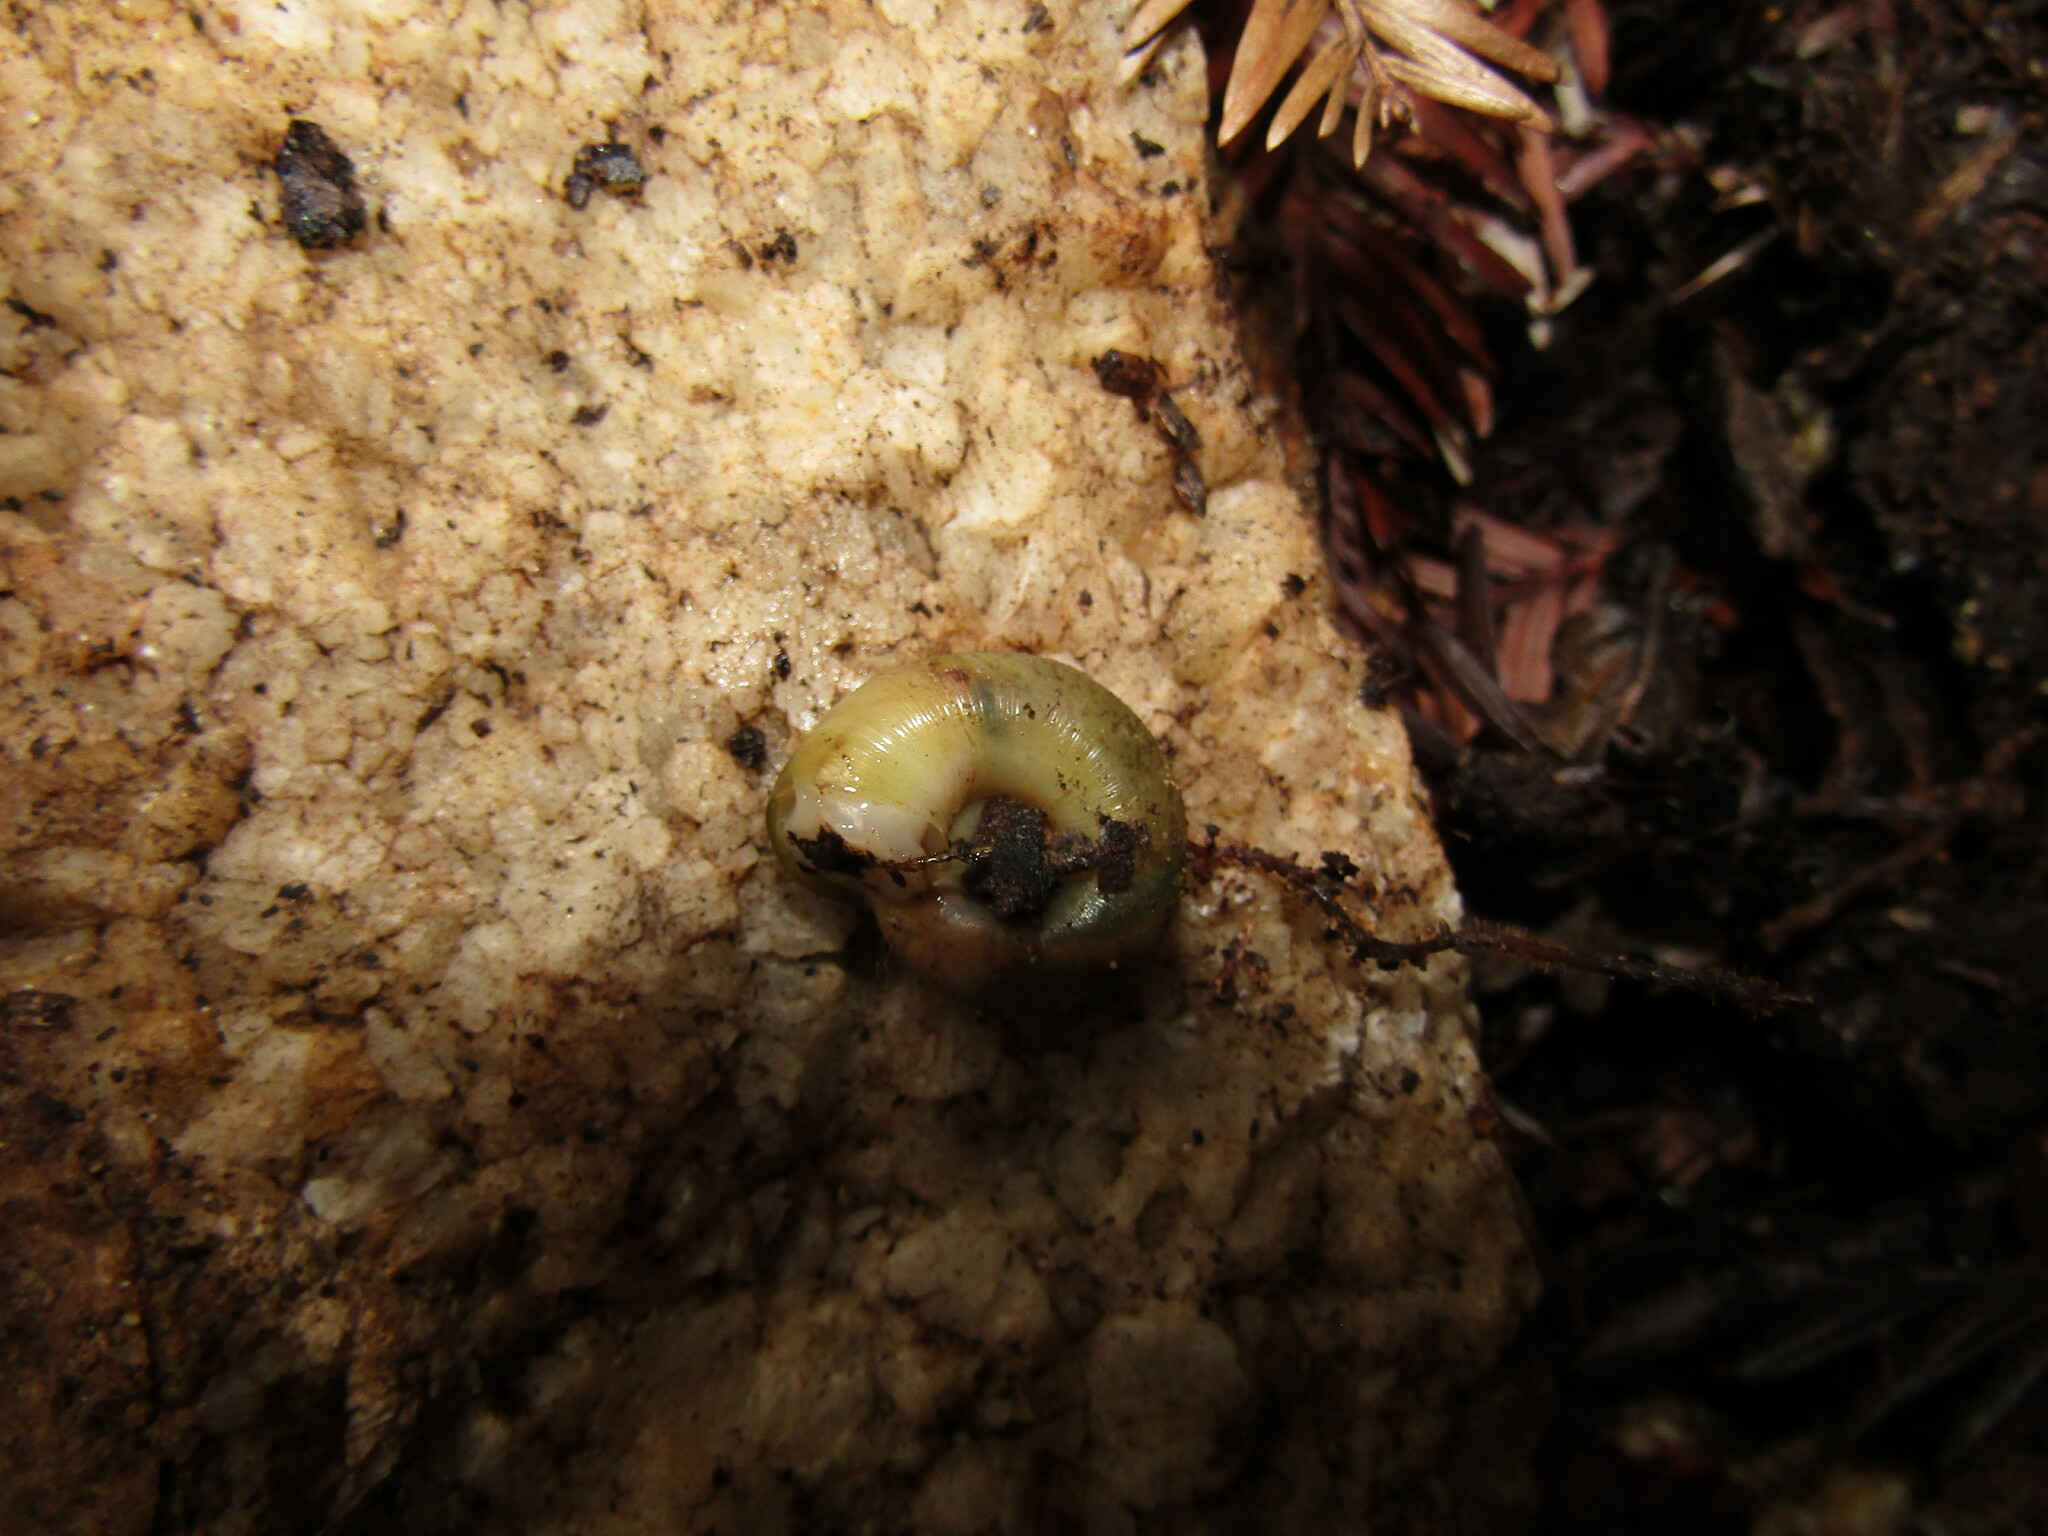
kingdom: Animalia
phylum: Mollusca
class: Gastropoda
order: Stylommatophora
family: Haplotrematidae
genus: Haplotrema
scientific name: Haplotrema minimum
